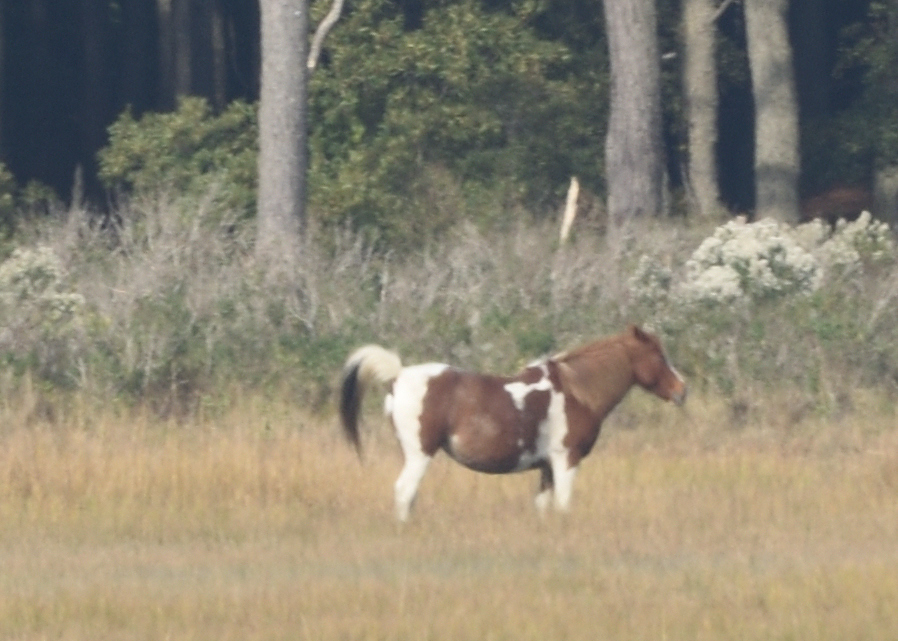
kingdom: Animalia
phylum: Chordata
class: Mammalia
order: Perissodactyla
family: Equidae
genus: Equus
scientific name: Equus caballus
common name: Horse
